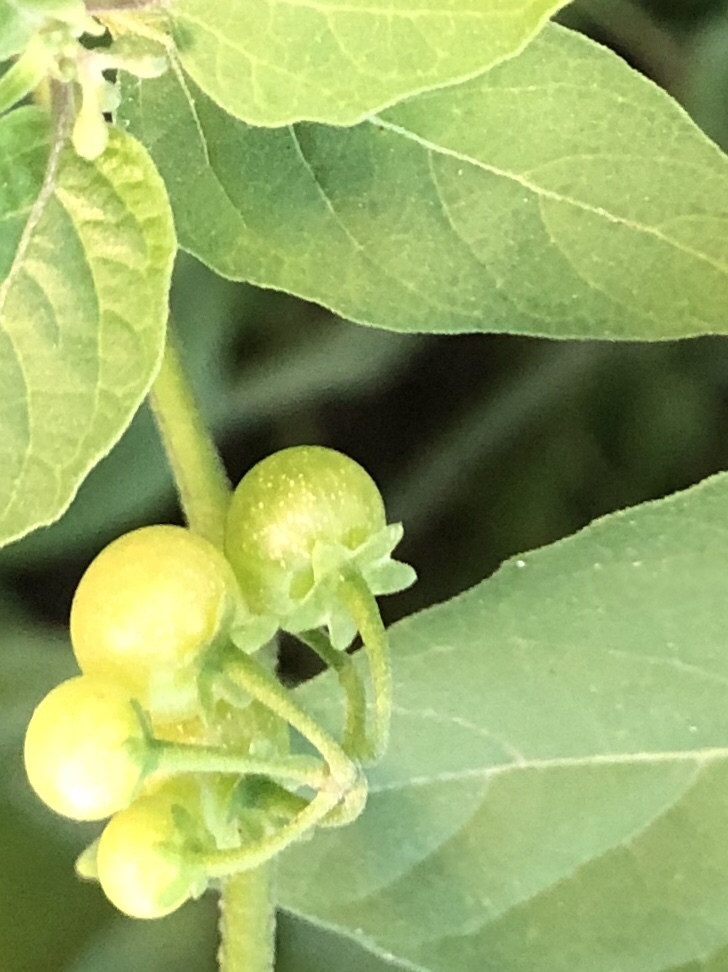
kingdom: Plantae
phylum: Tracheophyta
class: Magnoliopsida
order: Solanales
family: Solanaceae
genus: Solanum
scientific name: Solanum americanum
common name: American black nightshade
